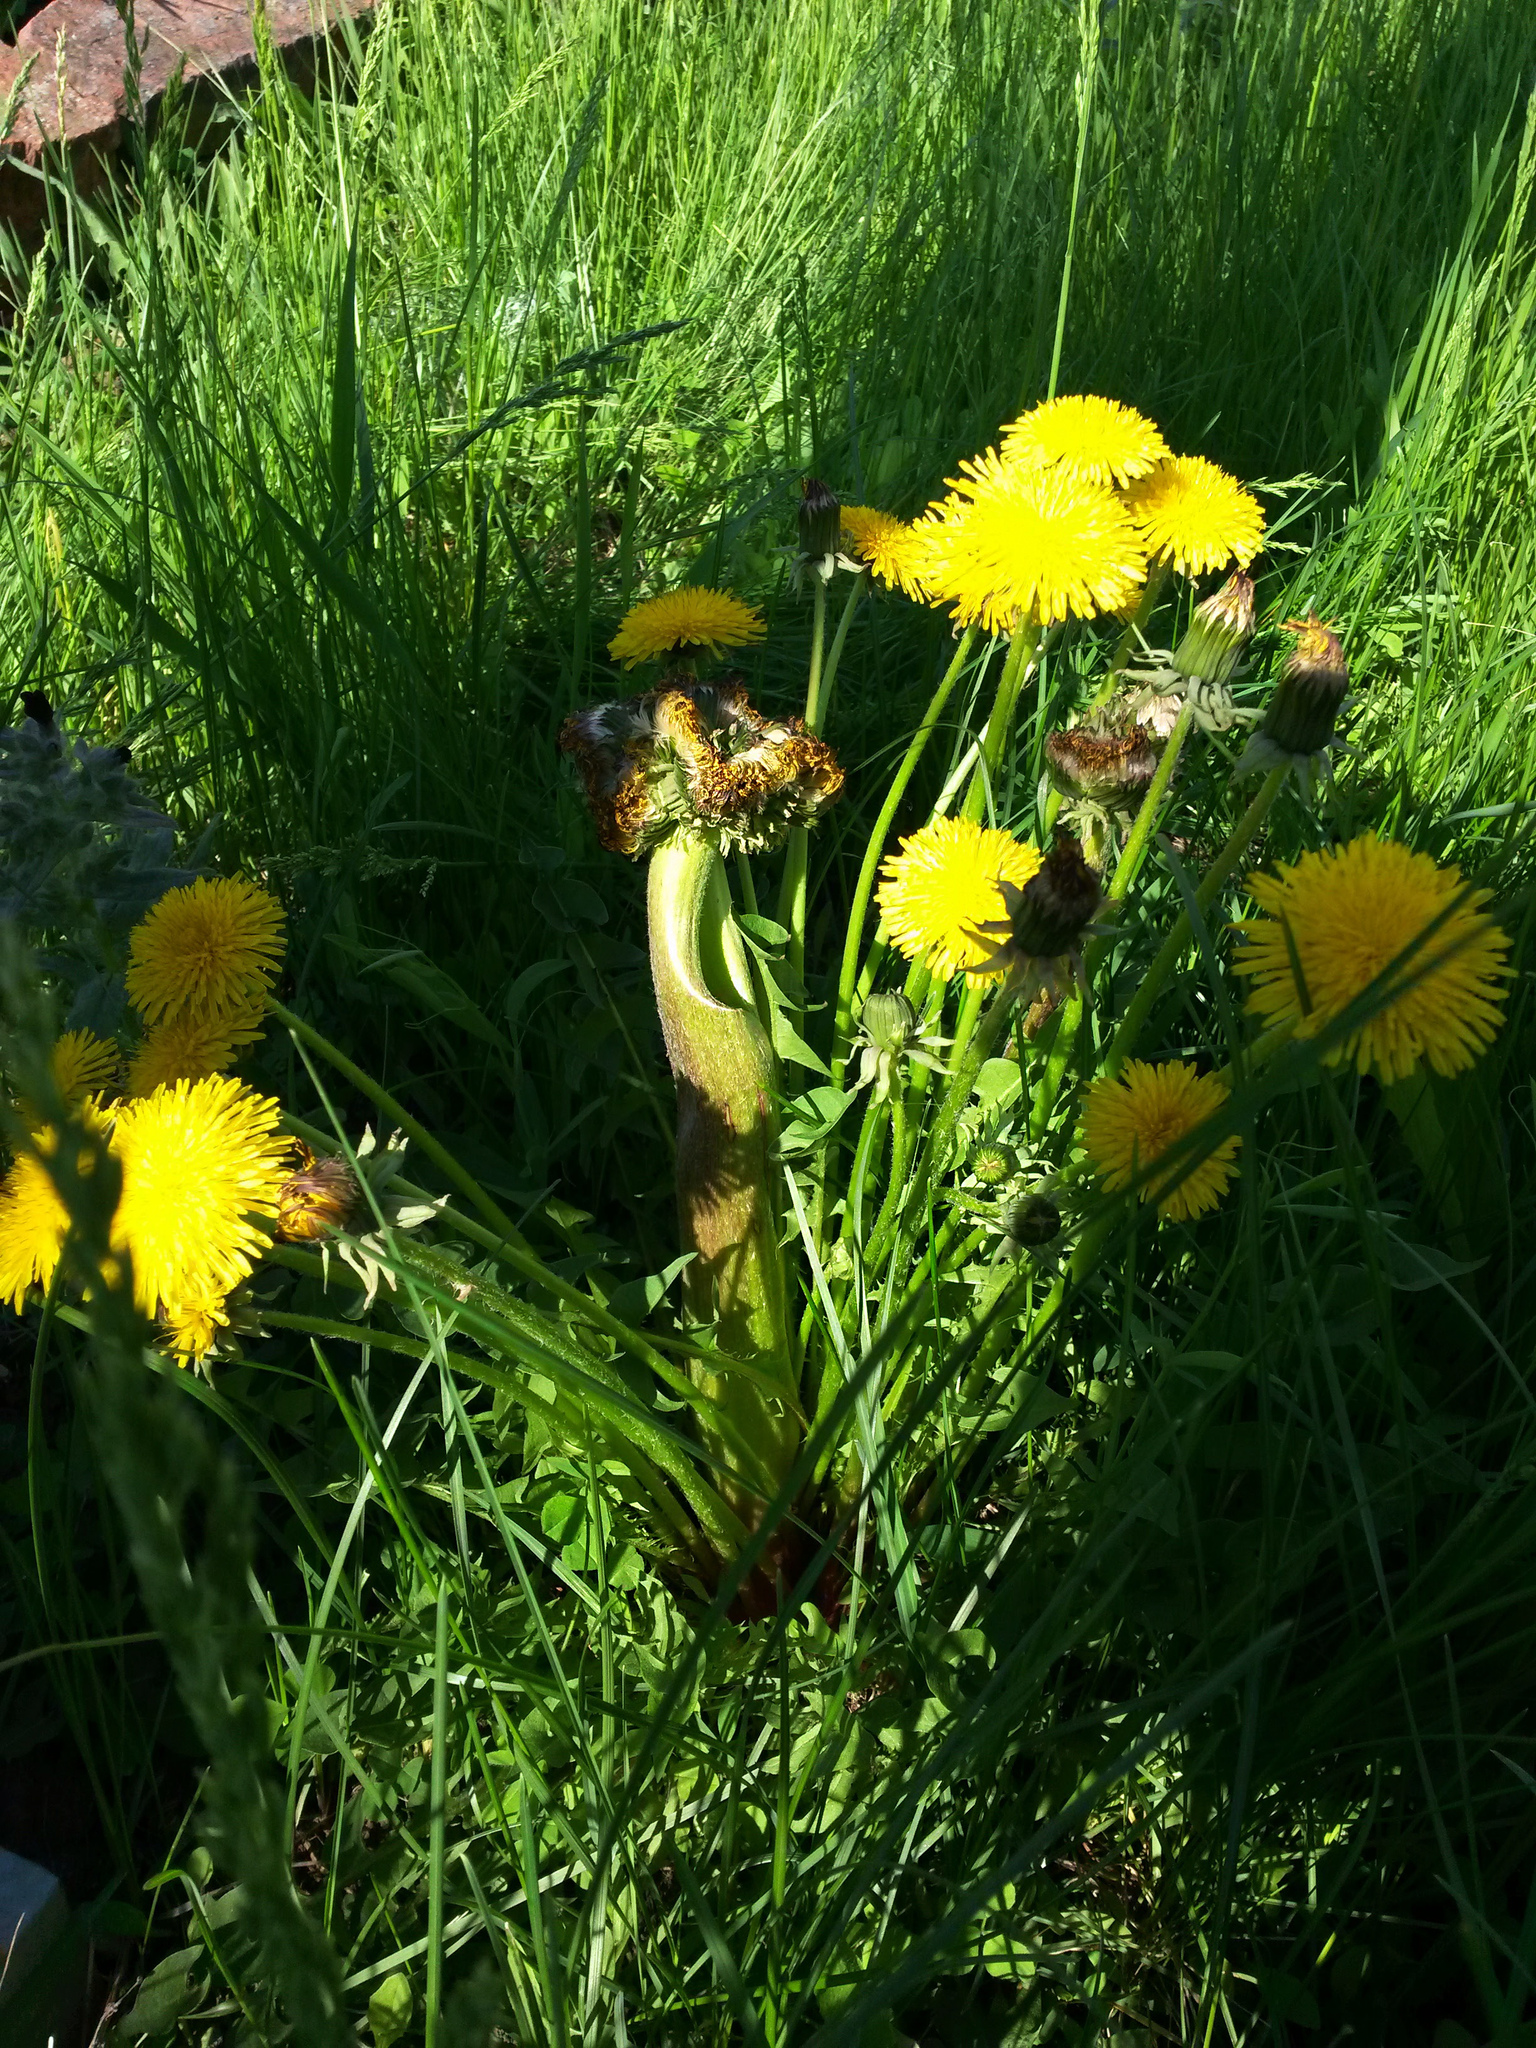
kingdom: Plantae
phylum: Tracheophyta
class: Magnoliopsida
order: Asterales
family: Asteraceae
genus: Taraxacum
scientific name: Taraxacum officinale
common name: Common dandelion
